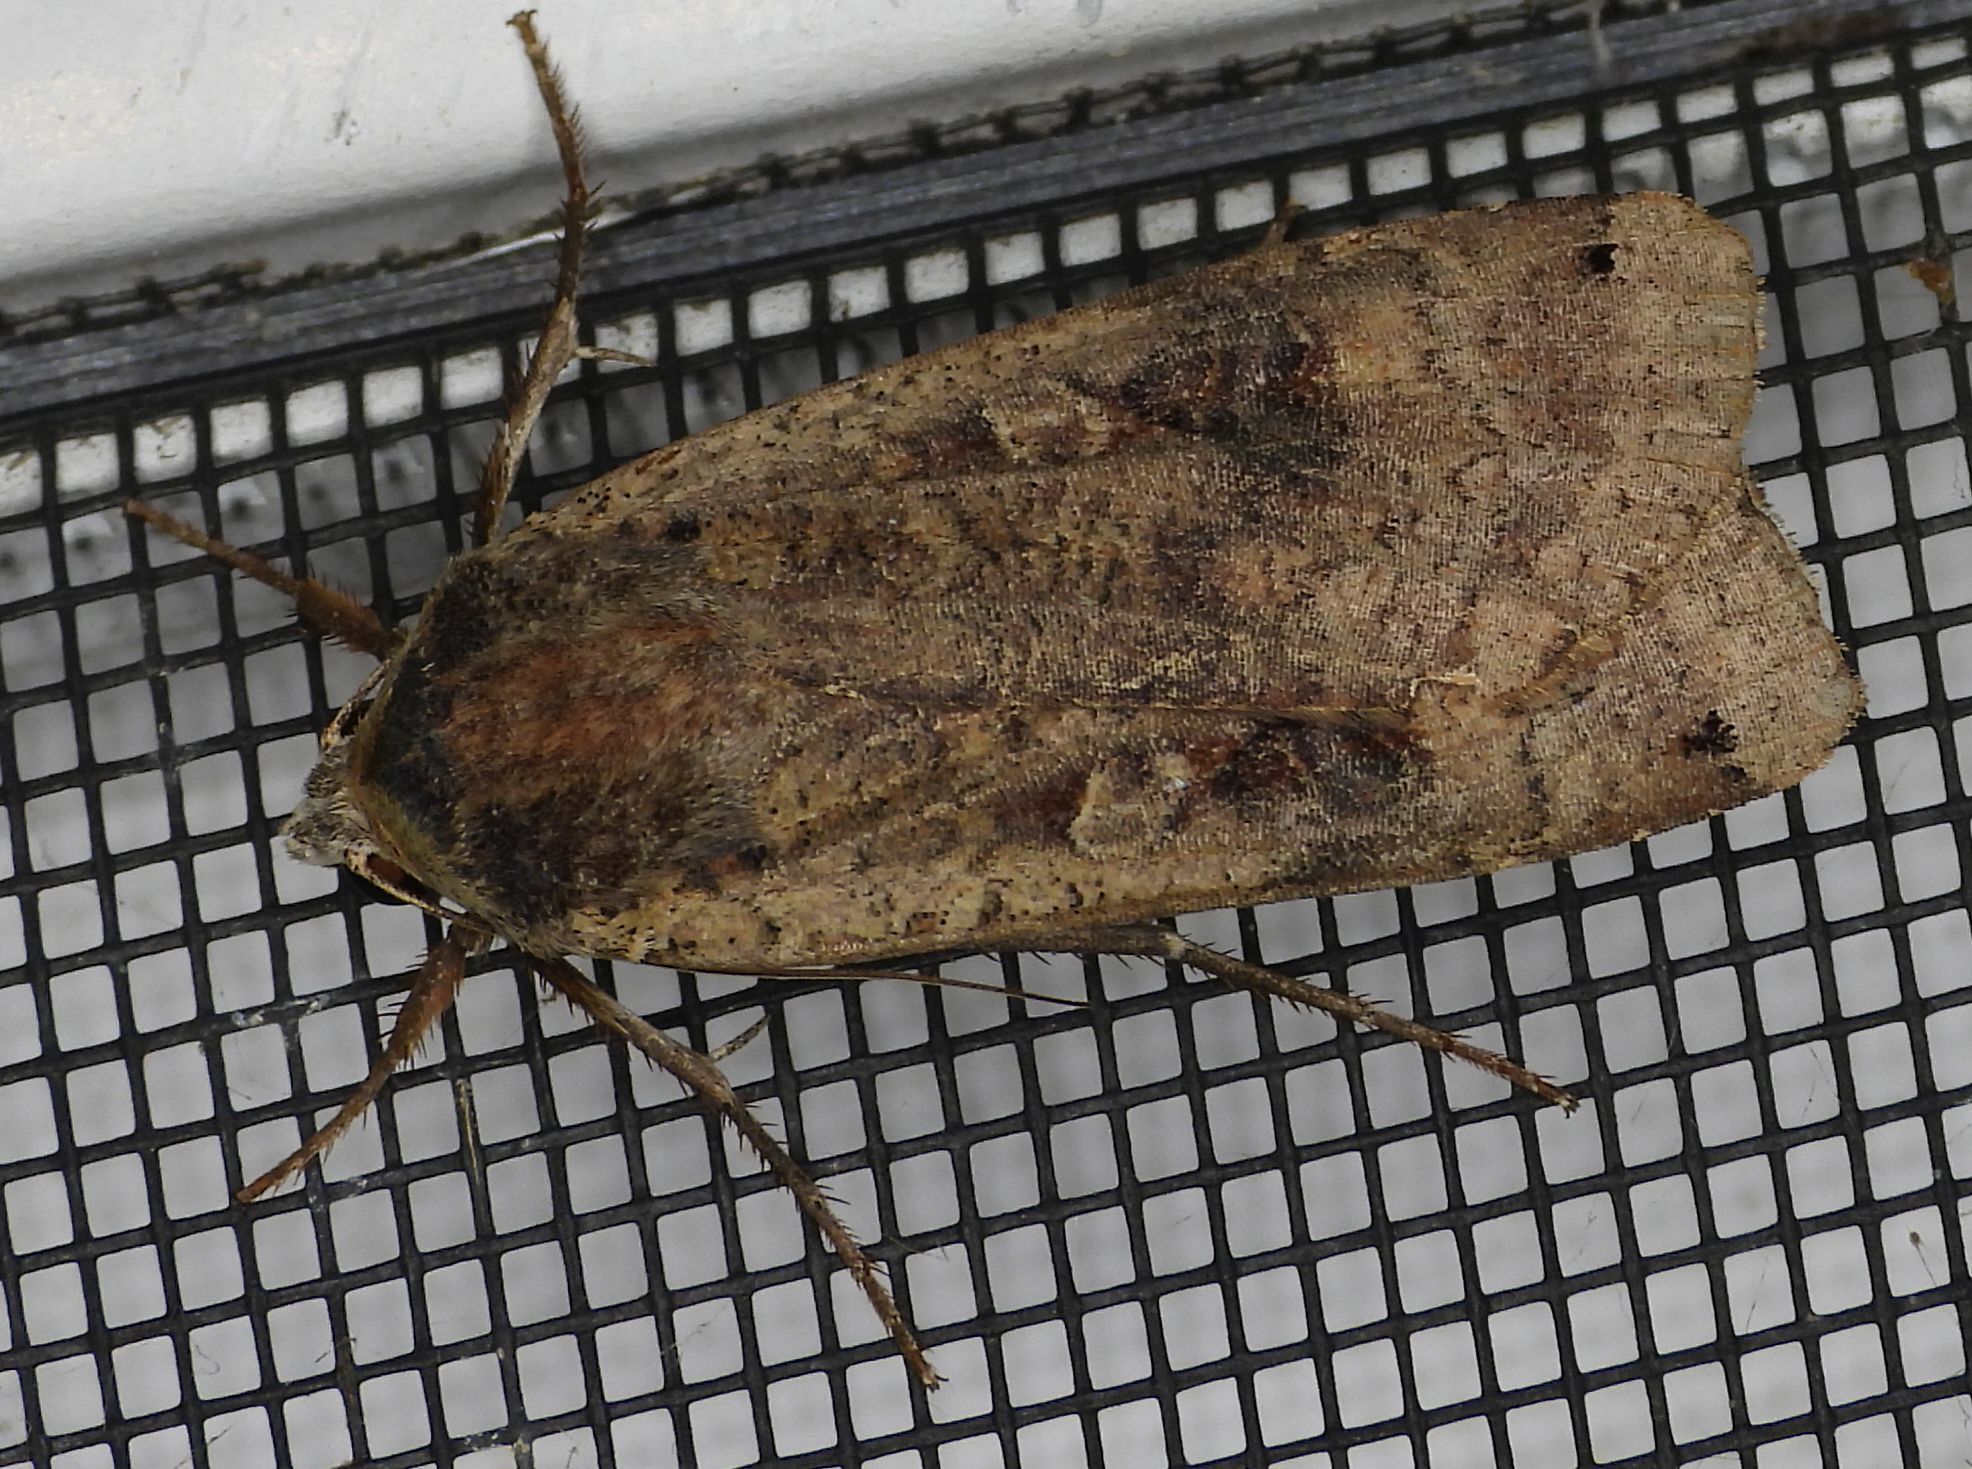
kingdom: Animalia
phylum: Arthropoda
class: Insecta
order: Lepidoptera
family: Noctuidae
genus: Noctua
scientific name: Noctua pronuba
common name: Large yellow underwing
